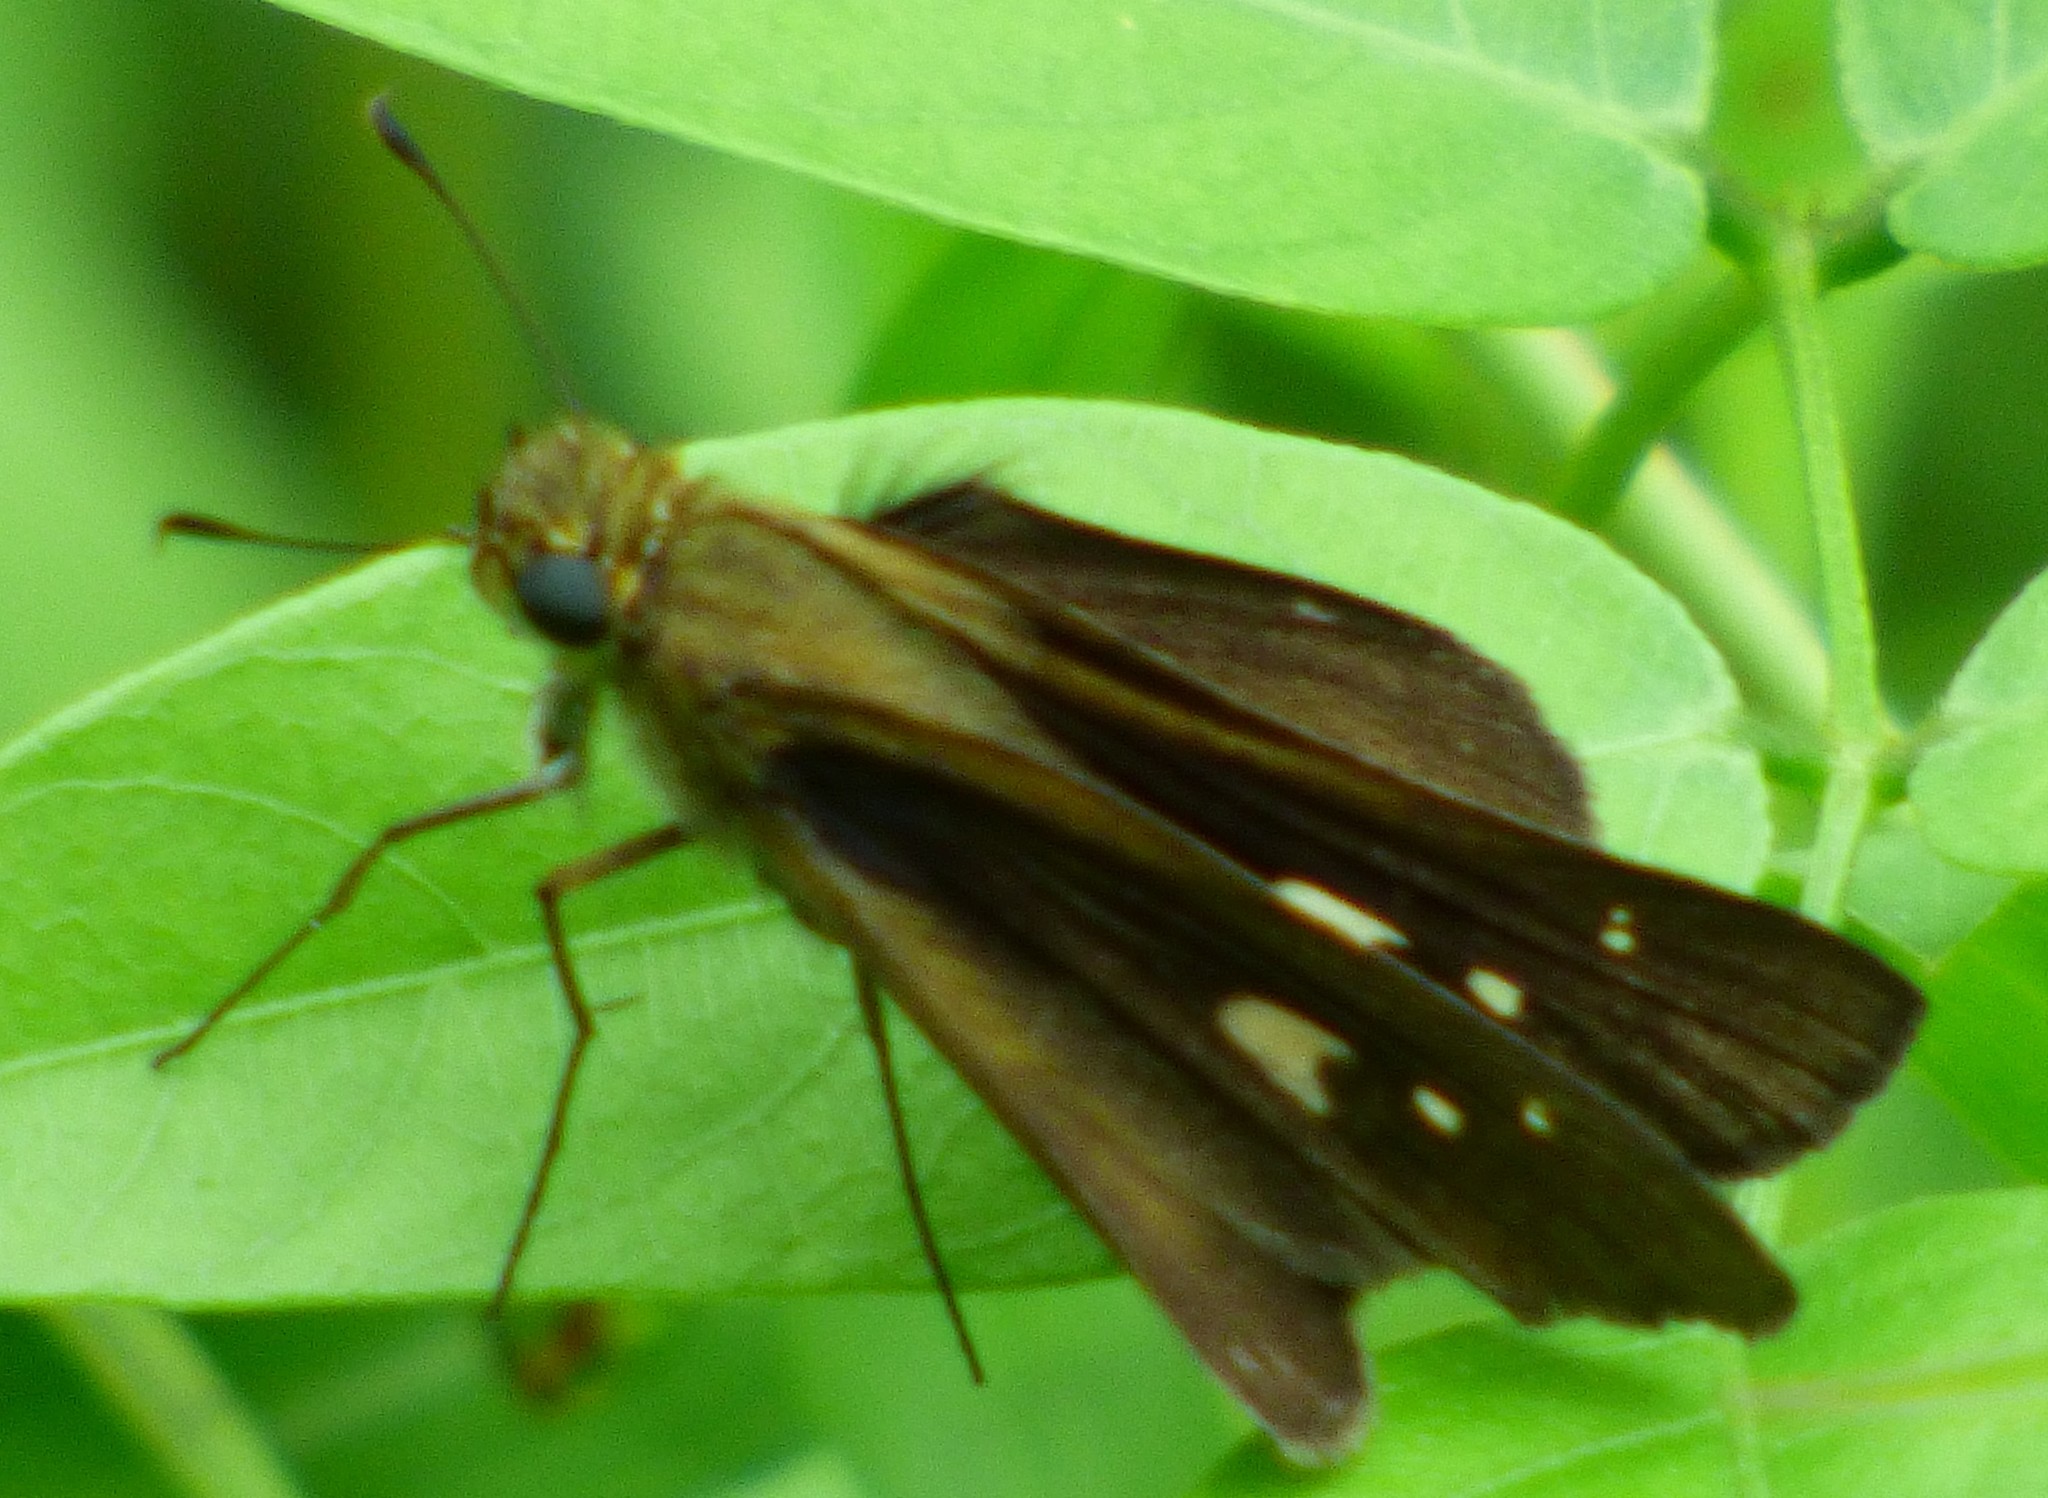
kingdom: Animalia
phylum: Arthropoda
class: Insecta
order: Lepidoptera
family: Hesperiidae
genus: Panoquina
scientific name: Panoquina ocola
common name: Ocola skipper
